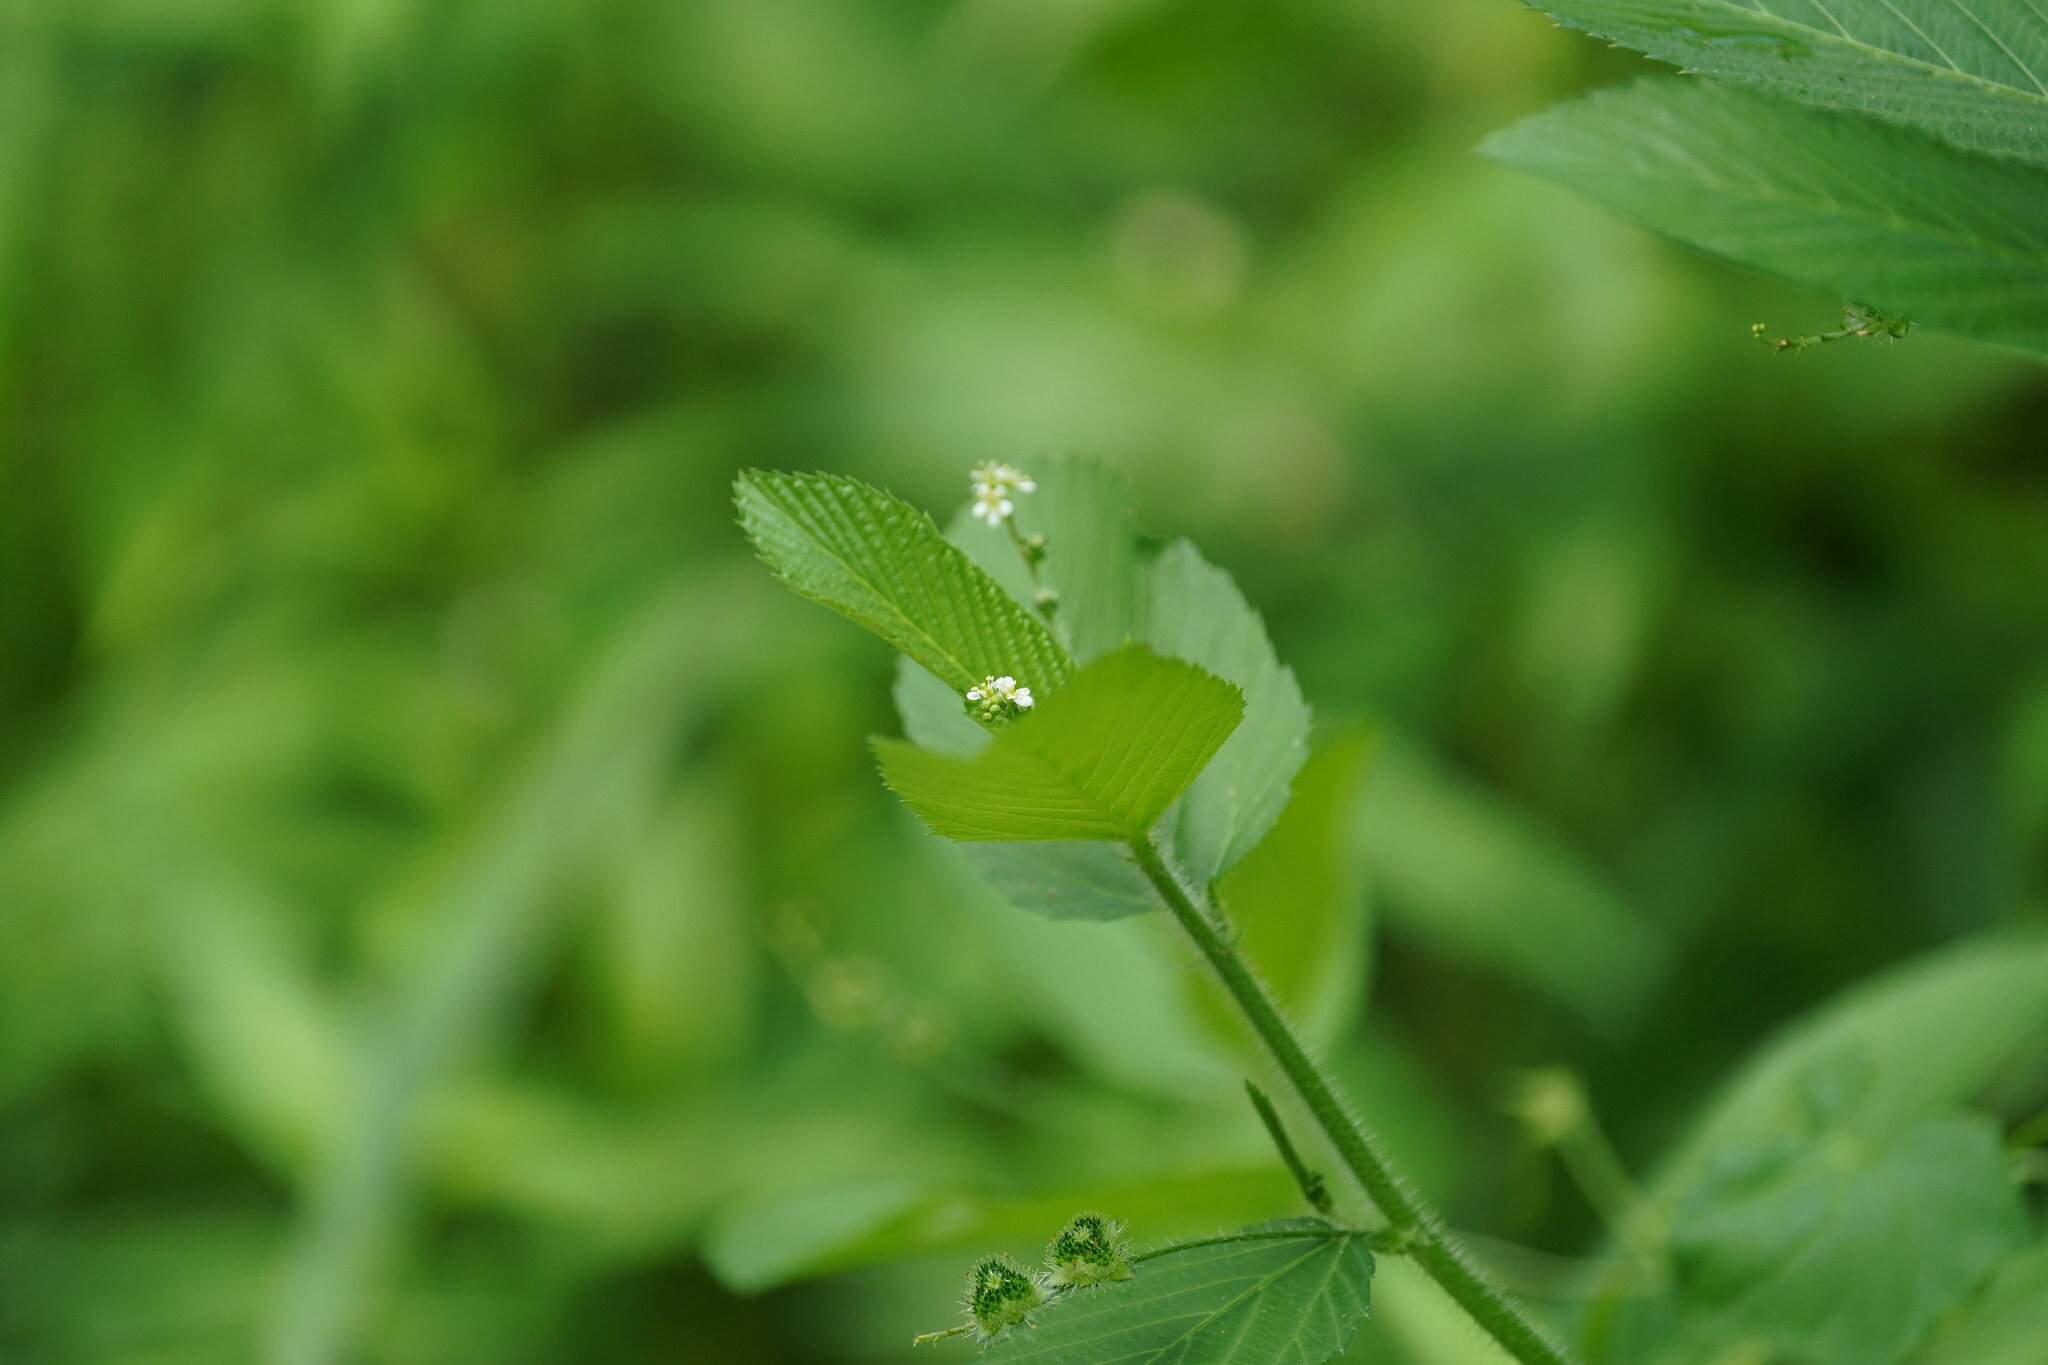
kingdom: Plantae
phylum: Tracheophyta
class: Magnoliopsida
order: Malpighiales
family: Euphorbiaceae
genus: Caperonia
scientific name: Caperonia palustris
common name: Sacatrapo
